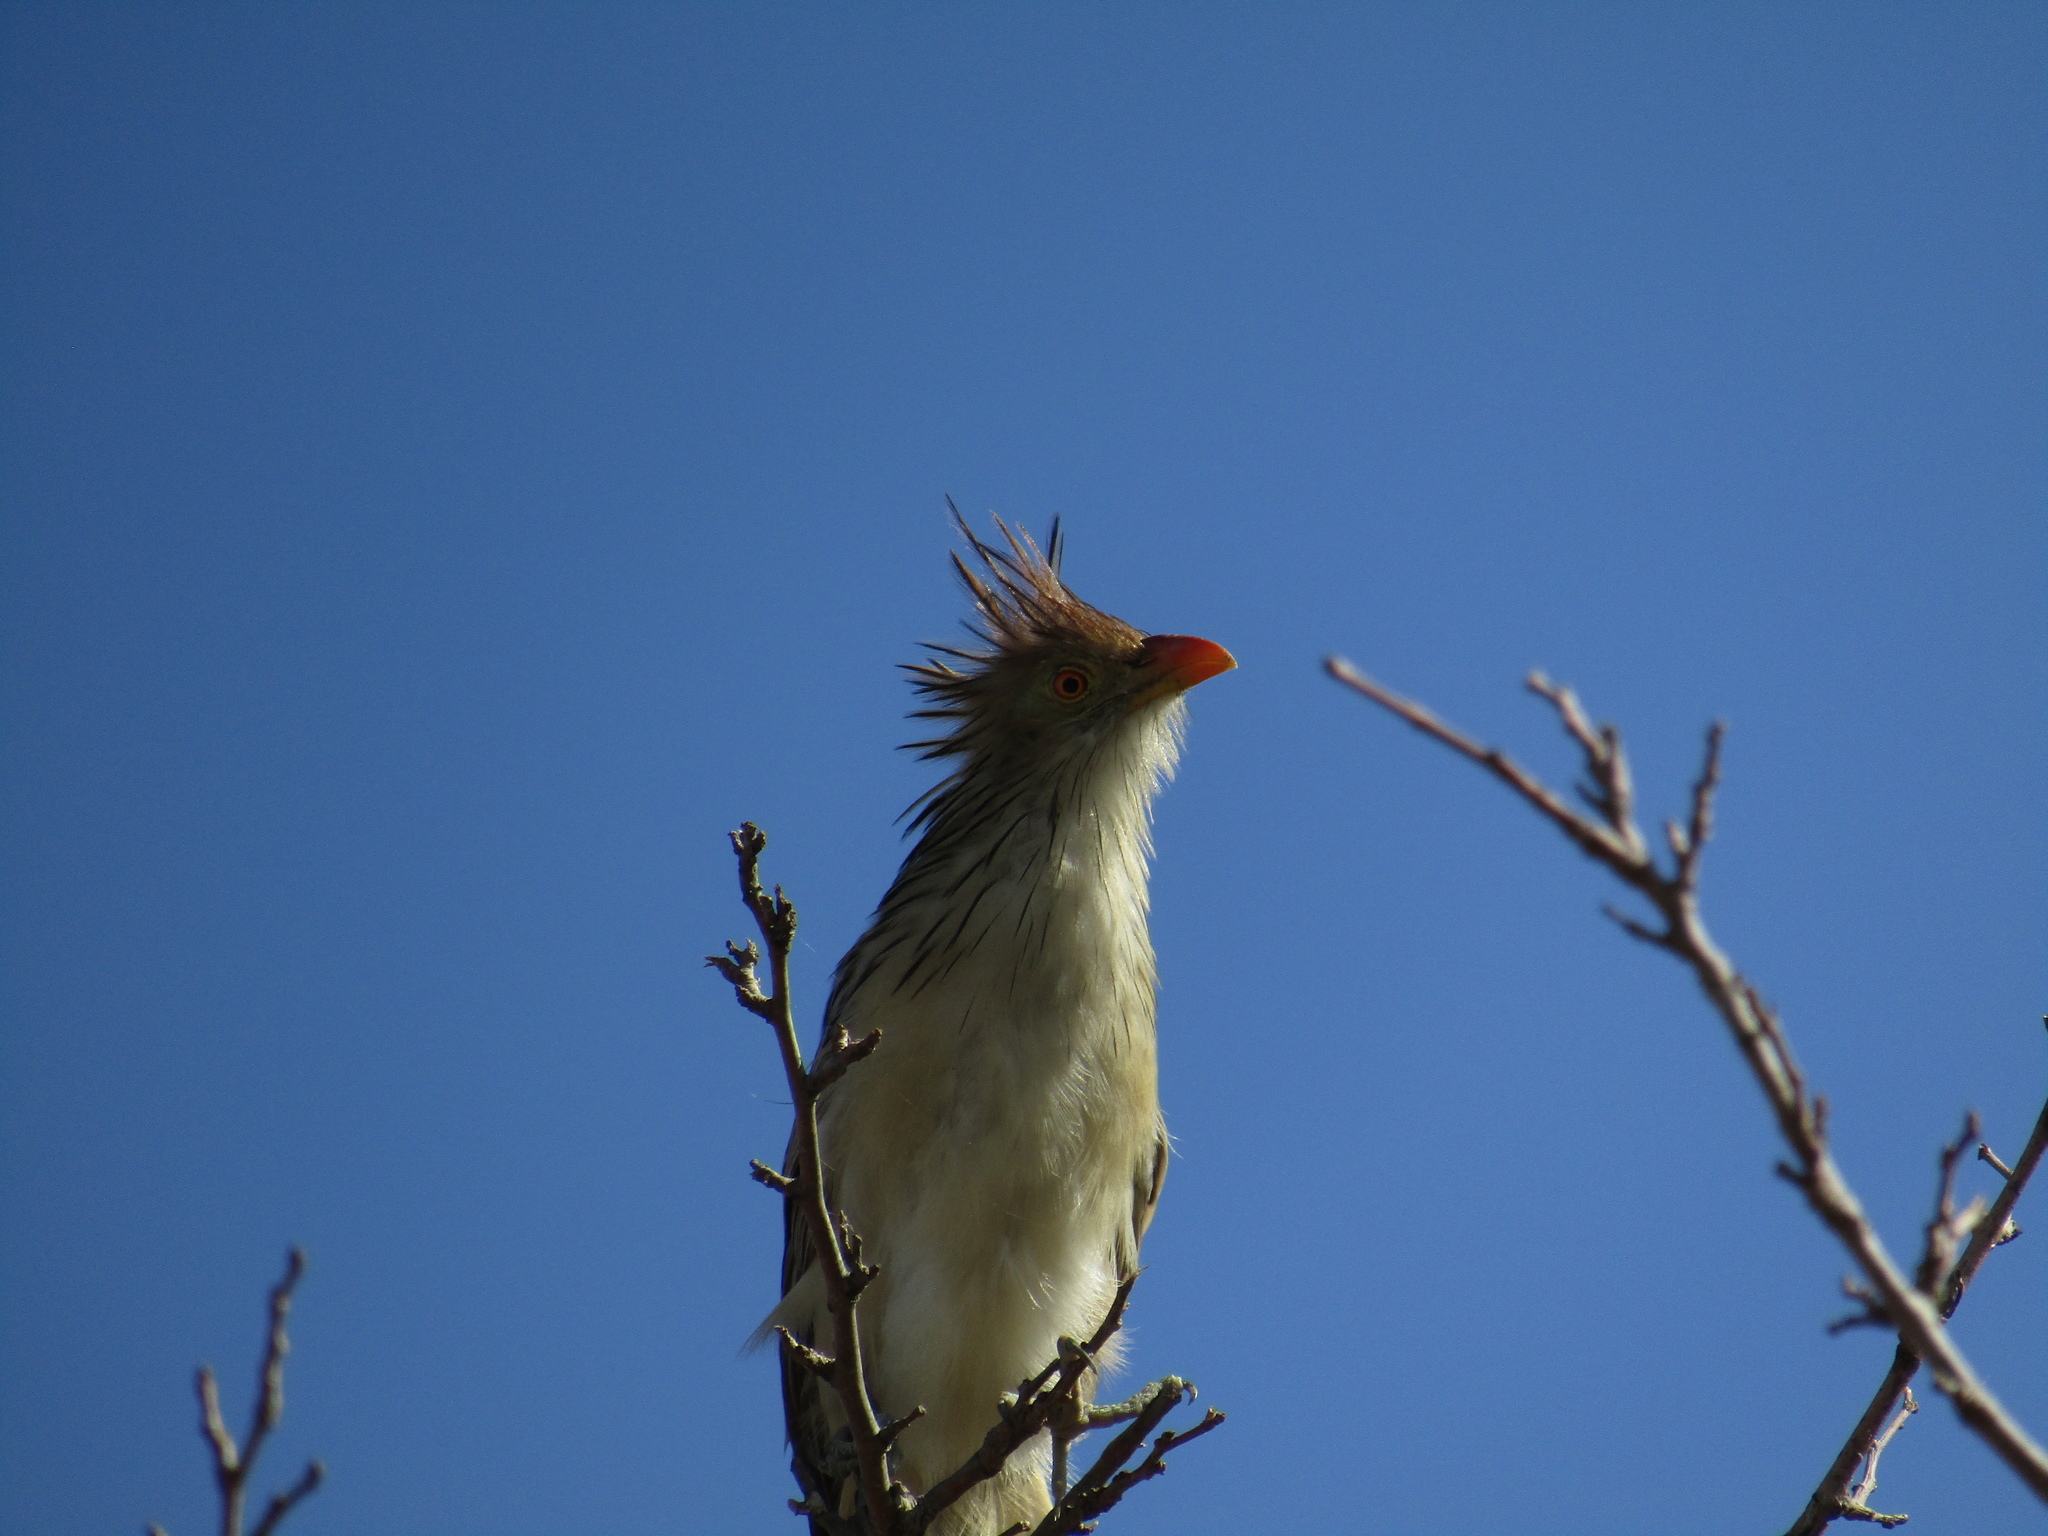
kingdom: Animalia
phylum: Chordata
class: Aves
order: Cuculiformes
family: Cuculidae
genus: Guira
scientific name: Guira guira
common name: Guira cuckoo
